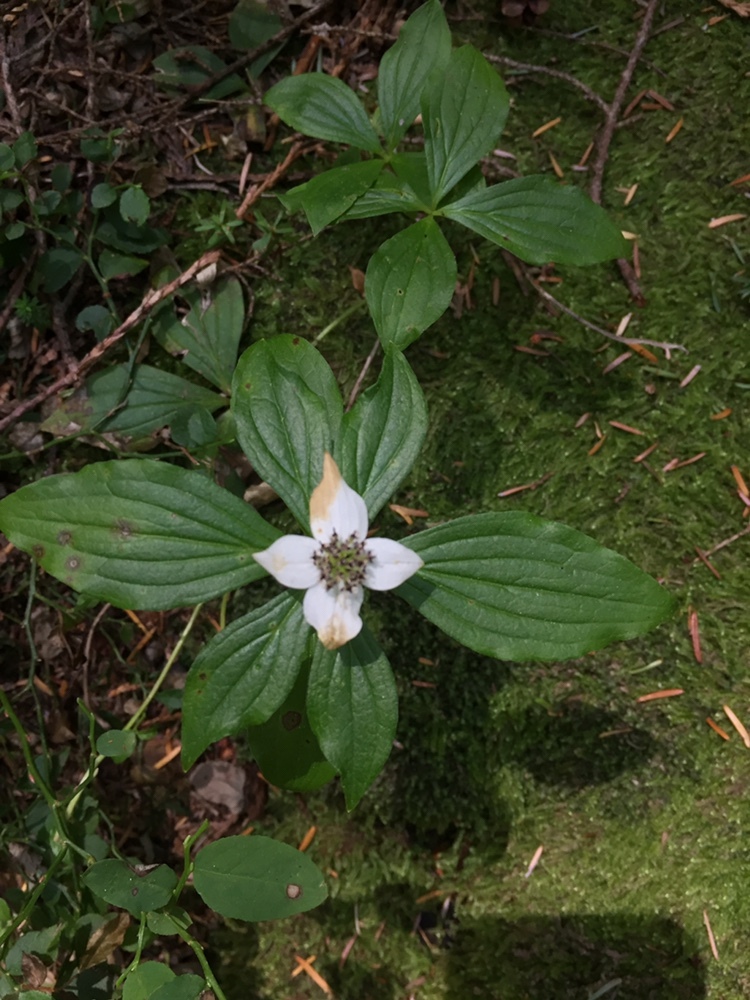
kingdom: Plantae
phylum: Tracheophyta
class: Magnoliopsida
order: Cornales
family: Cornaceae
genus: Cornus
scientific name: Cornus unalaschkensis
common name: Alaska bunchberry
